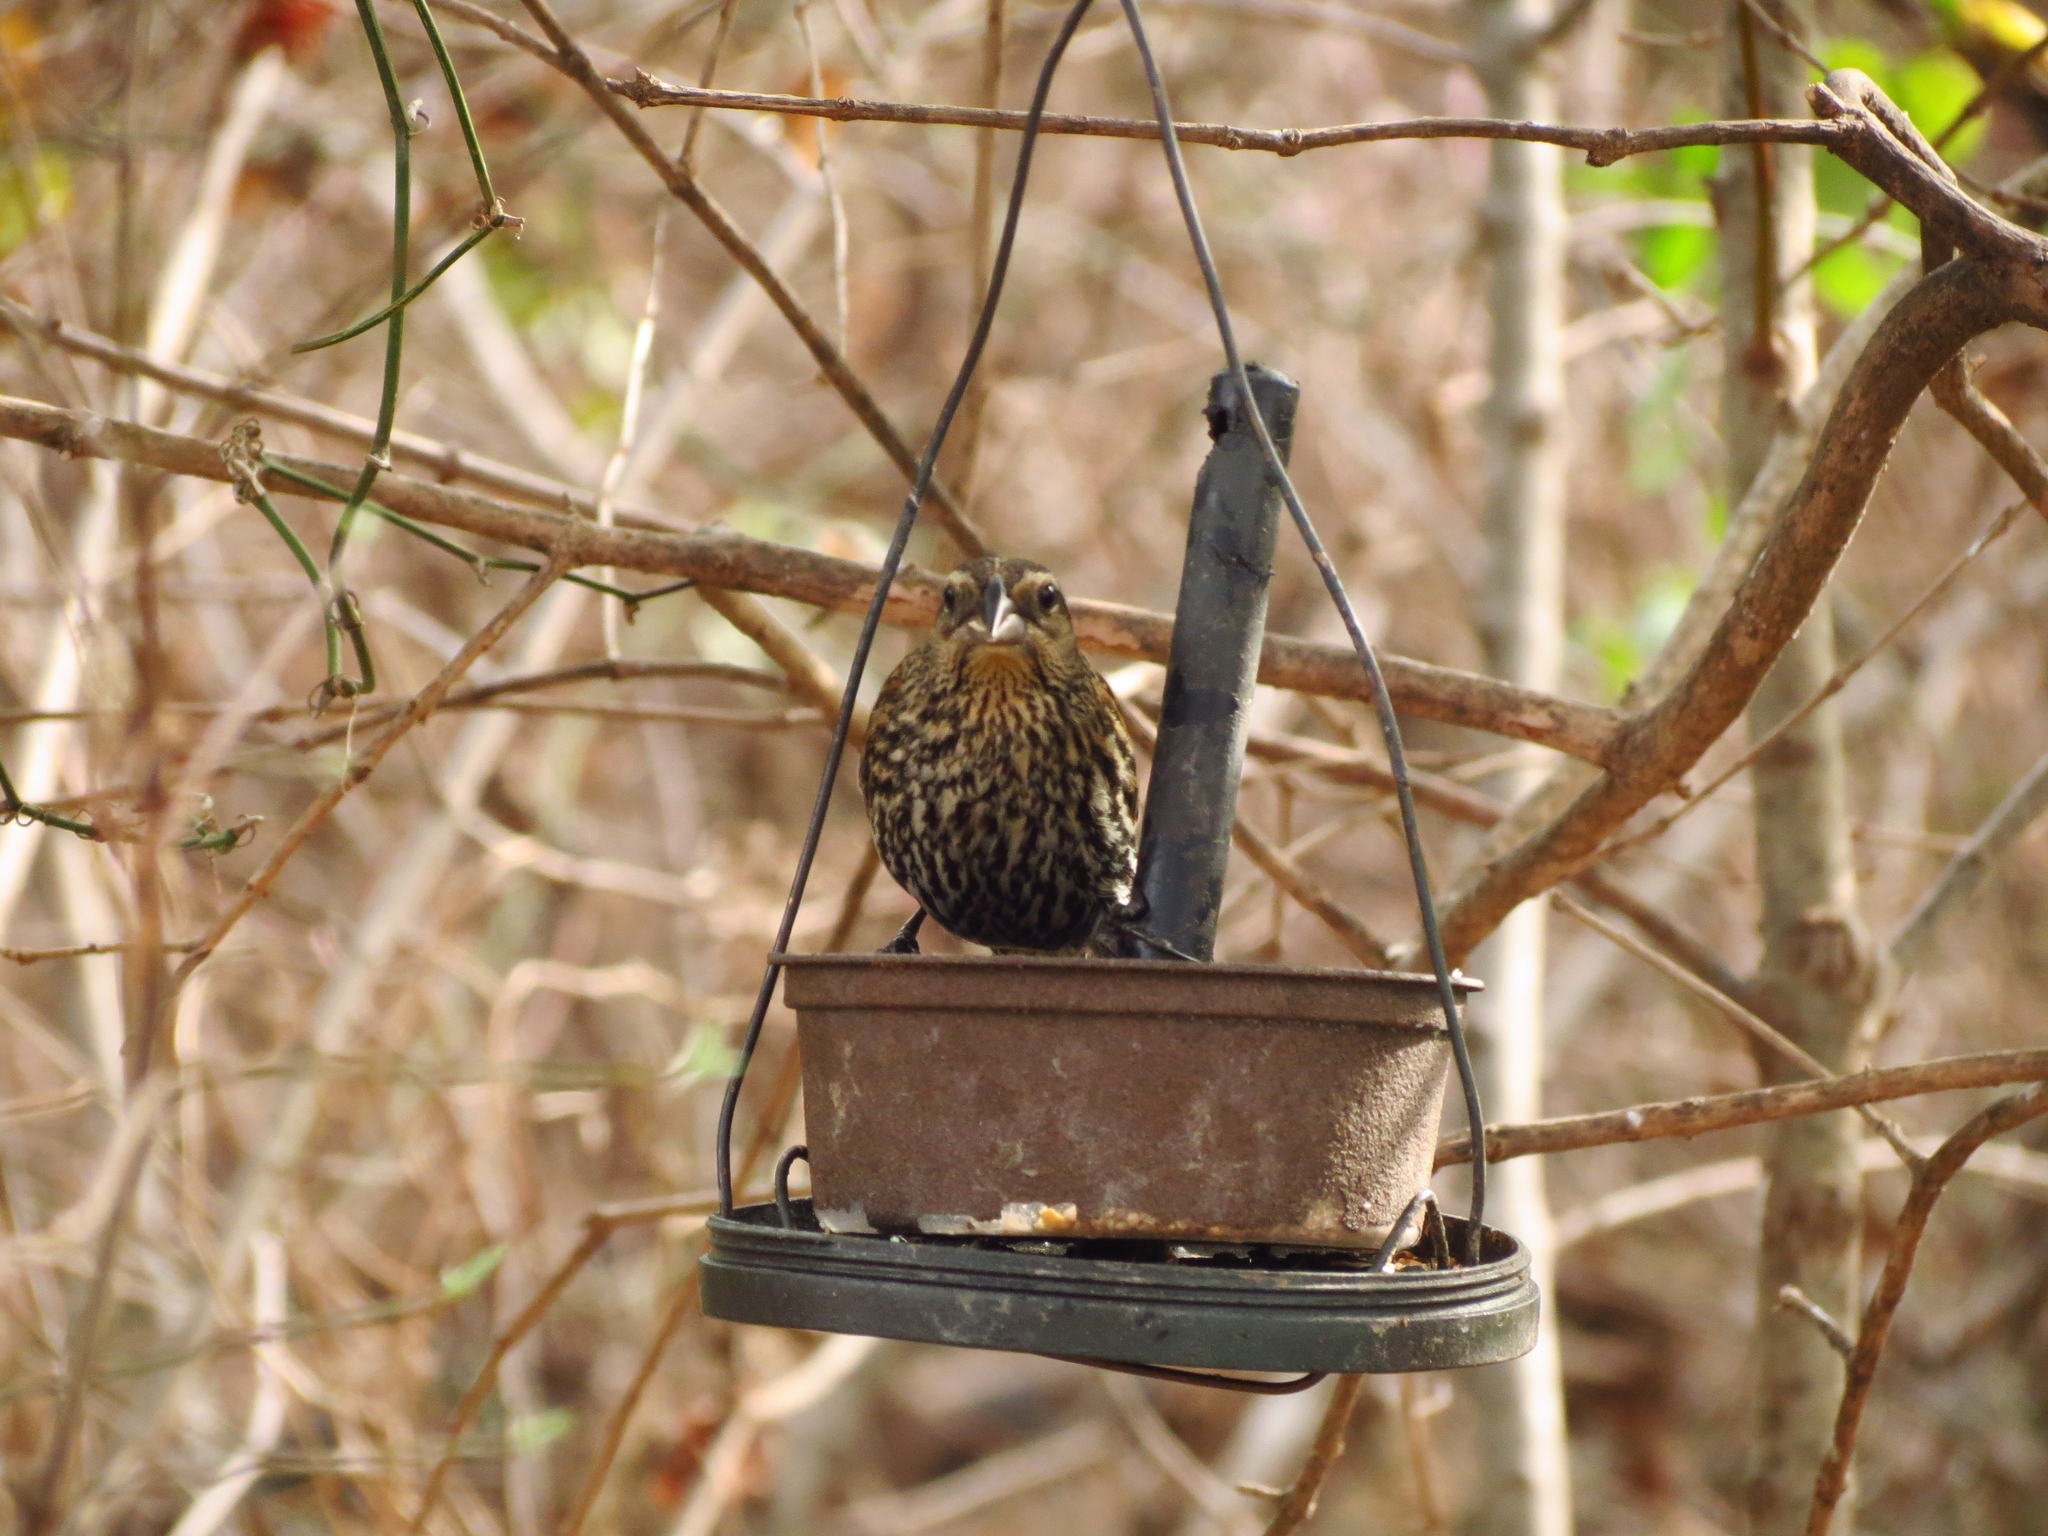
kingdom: Animalia
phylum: Chordata
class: Aves
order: Passeriformes
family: Icteridae
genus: Agelaius
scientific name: Agelaius phoeniceus
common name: Red-winged blackbird
